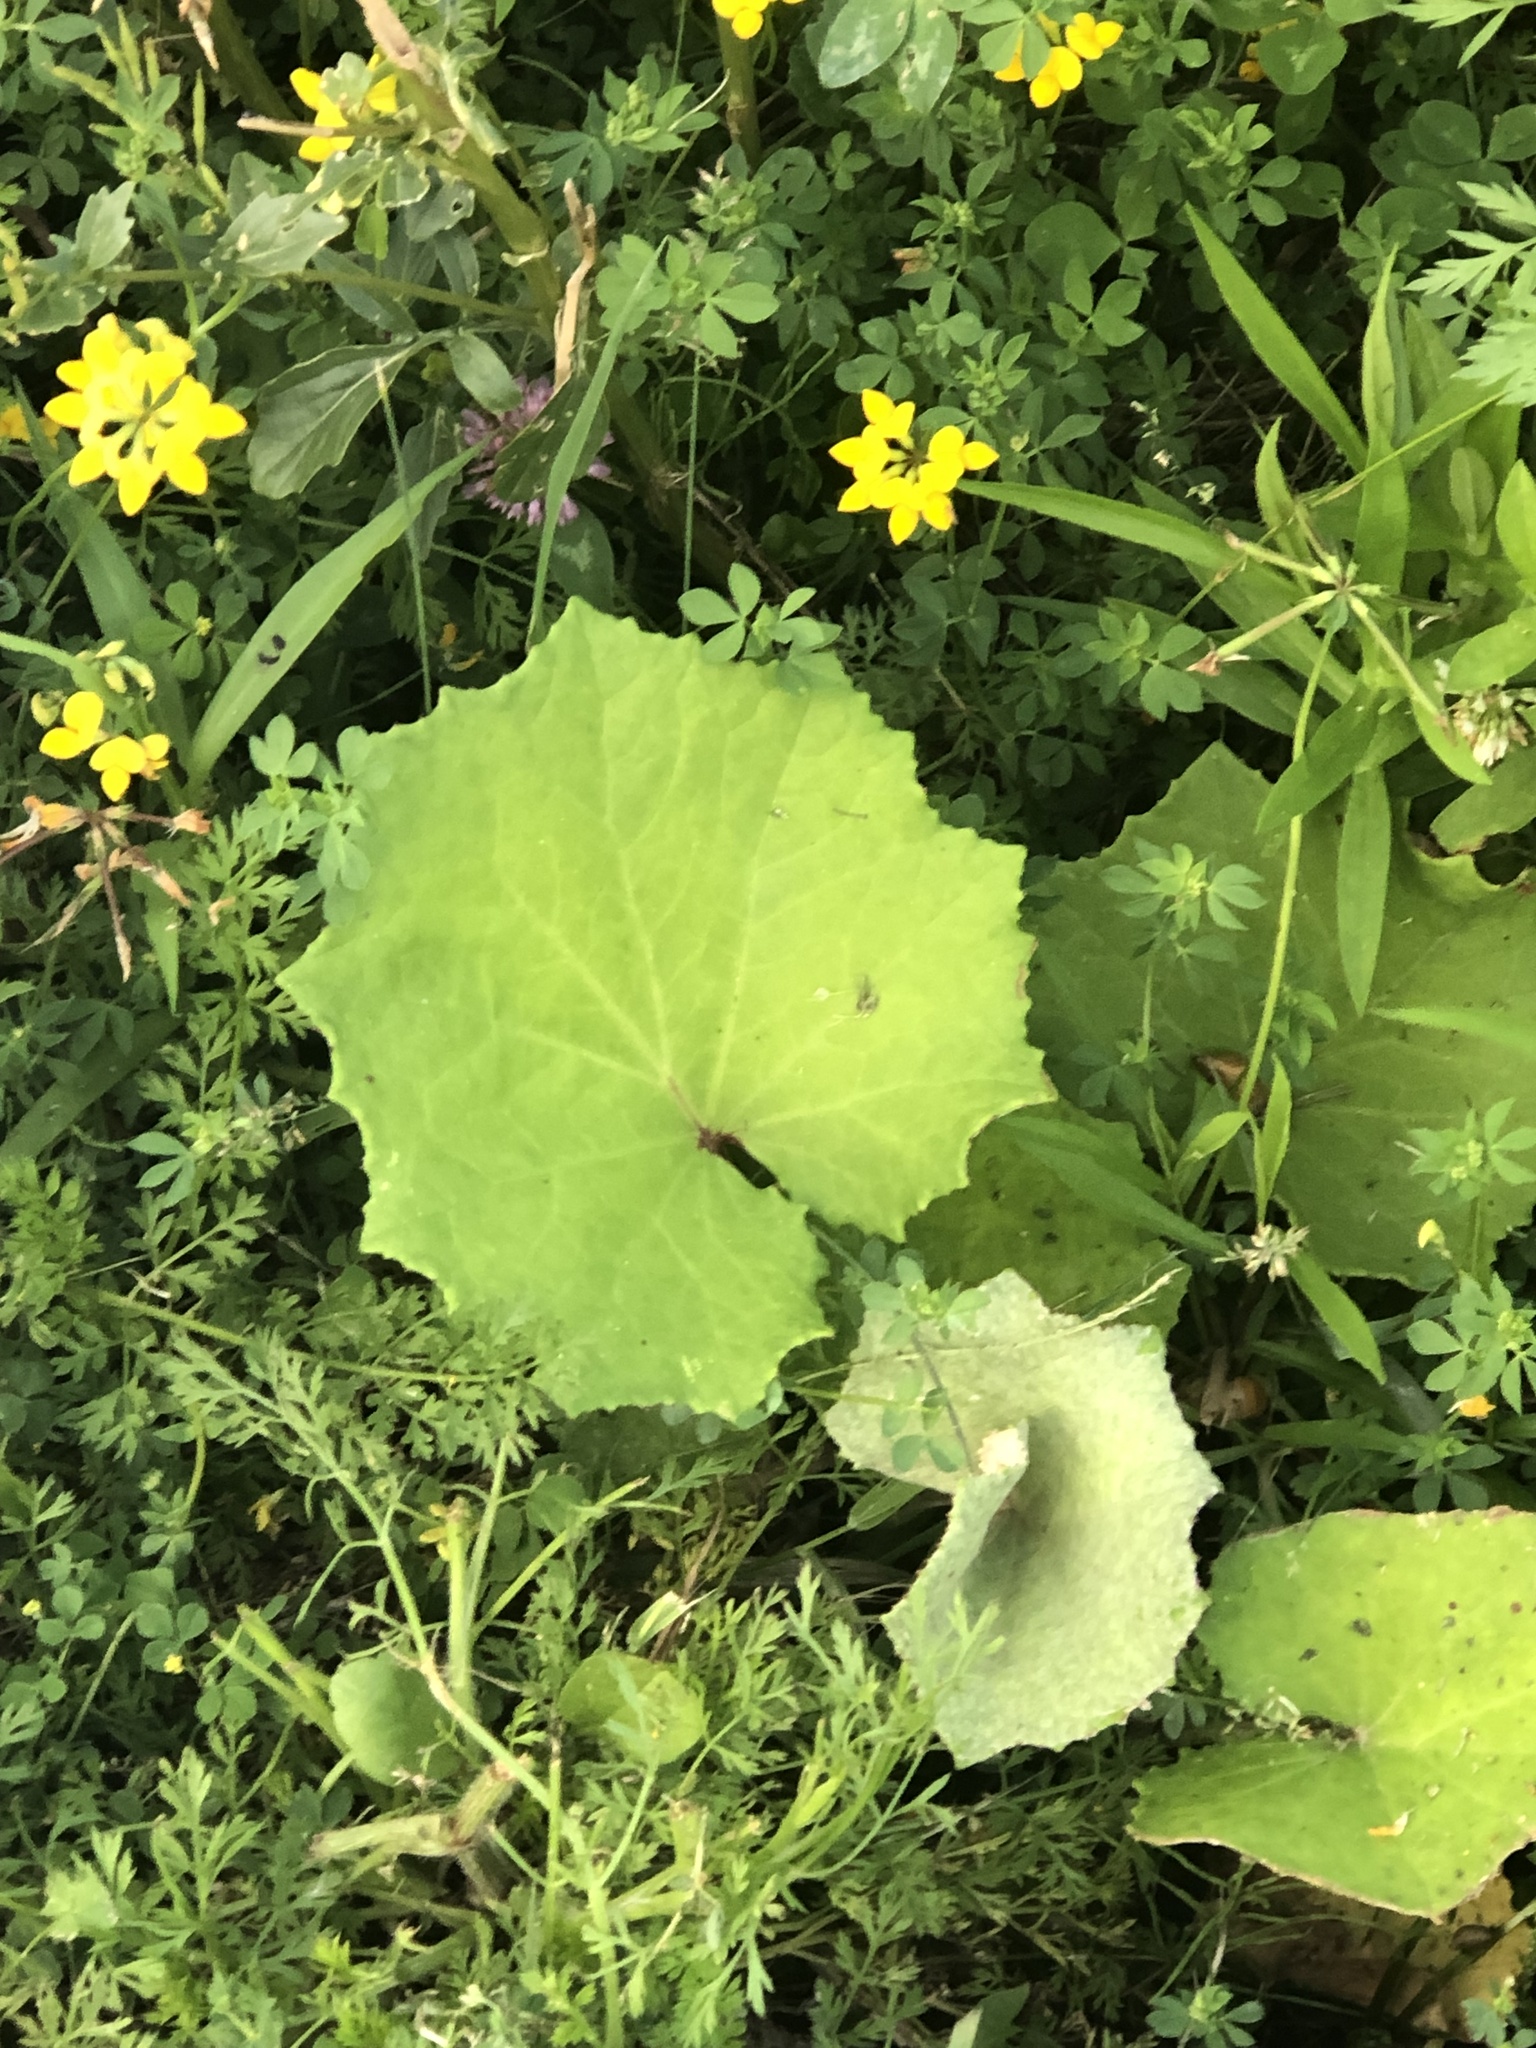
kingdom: Plantae
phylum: Tracheophyta
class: Magnoliopsida
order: Asterales
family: Asteraceae
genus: Tussilago
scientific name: Tussilago farfara
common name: Coltsfoot
